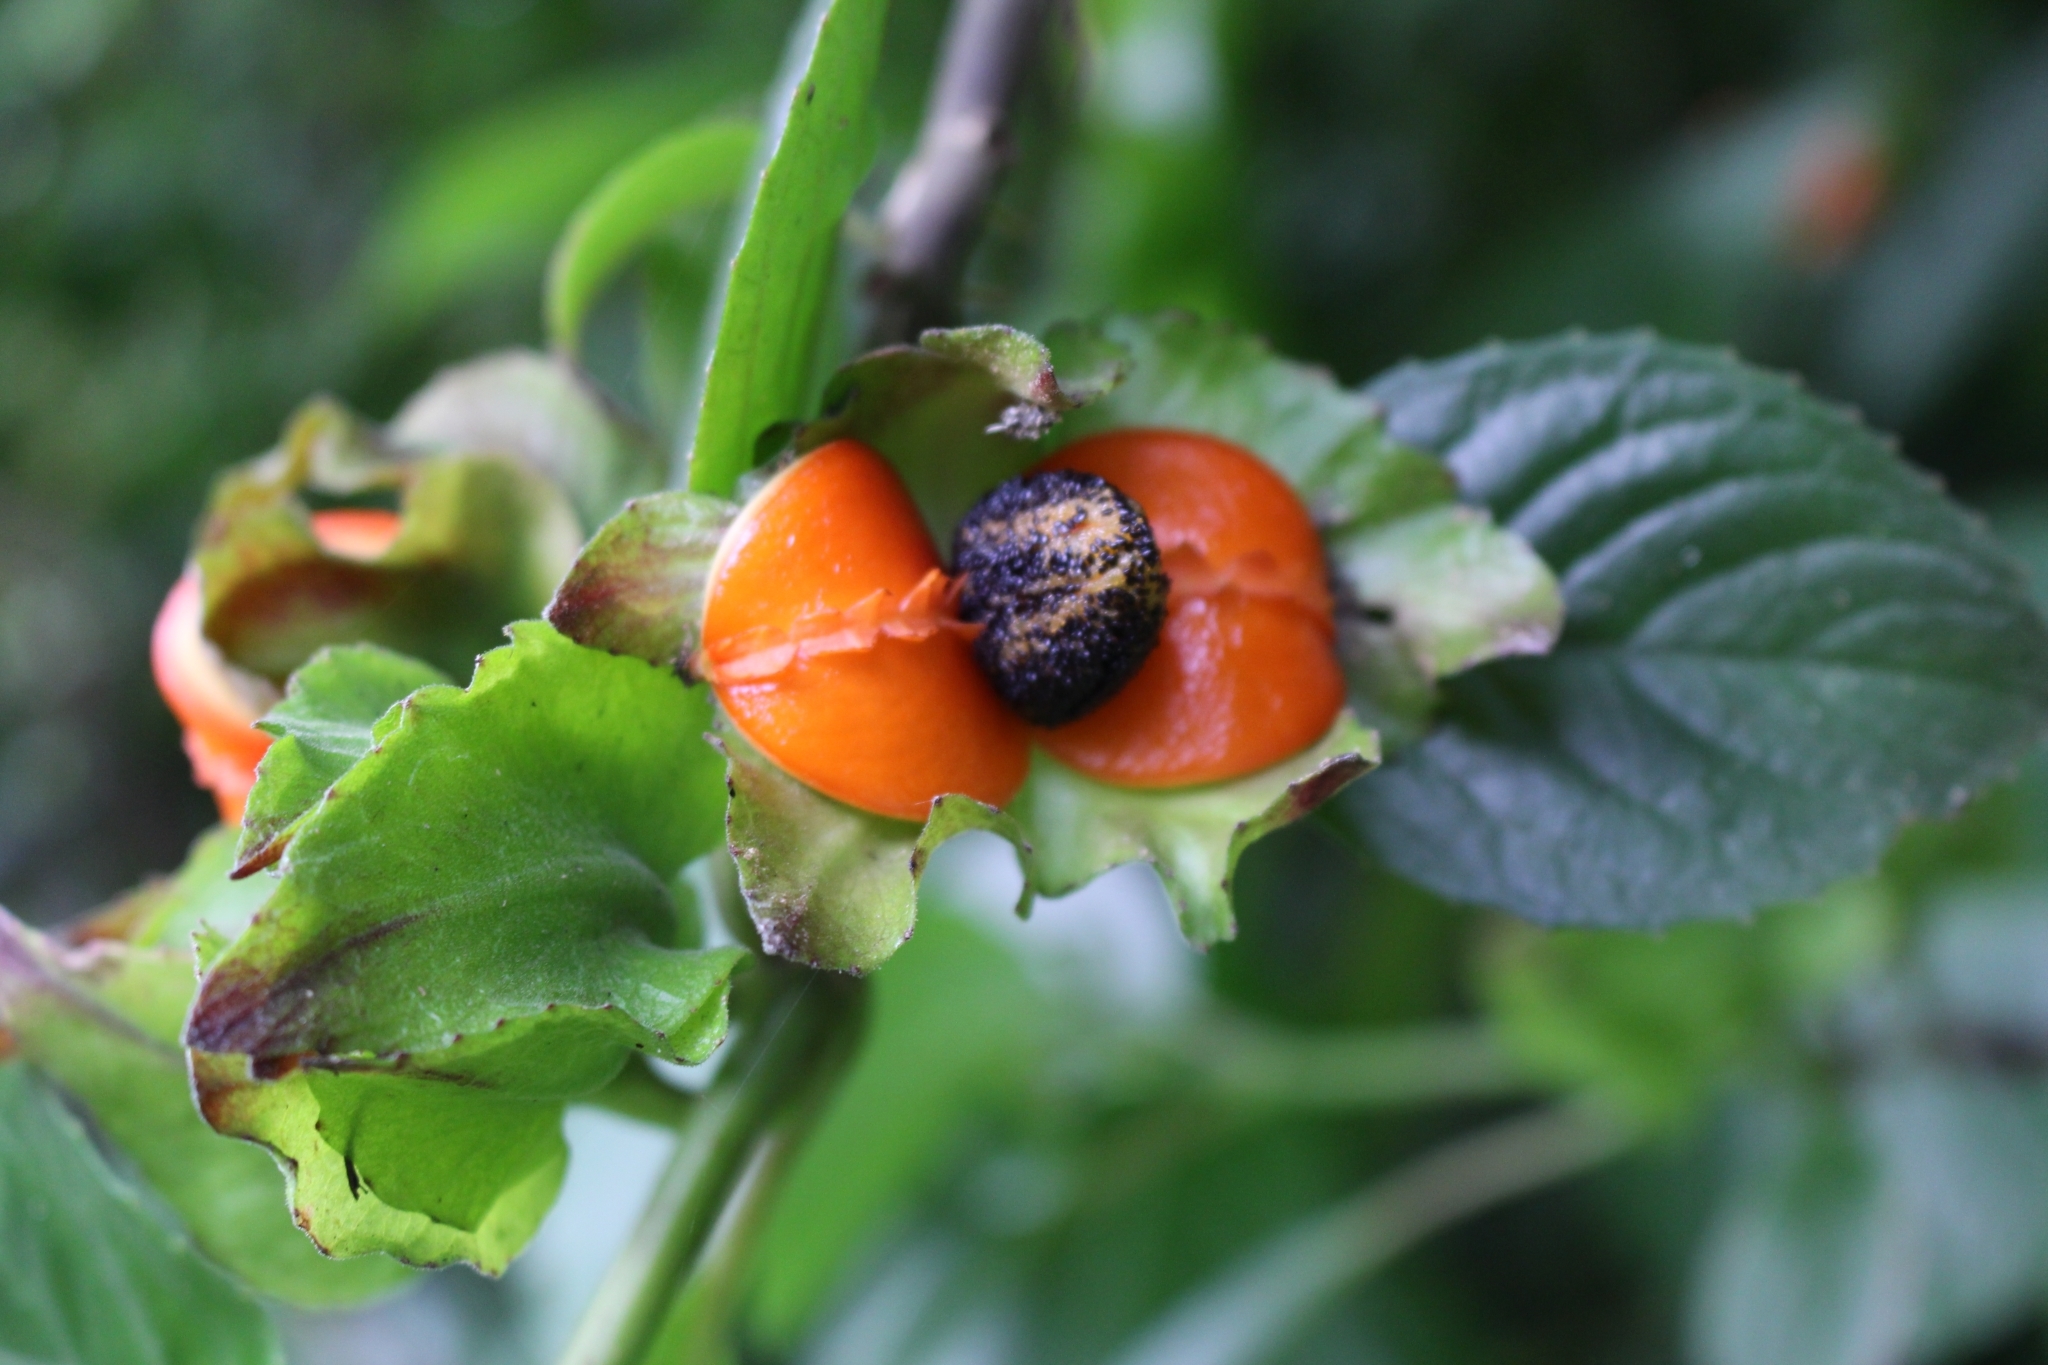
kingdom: Plantae
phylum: Tracheophyta
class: Magnoliopsida
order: Lamiales
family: Gesneriaceae
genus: Drymonia
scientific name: Drymonia serrulata
